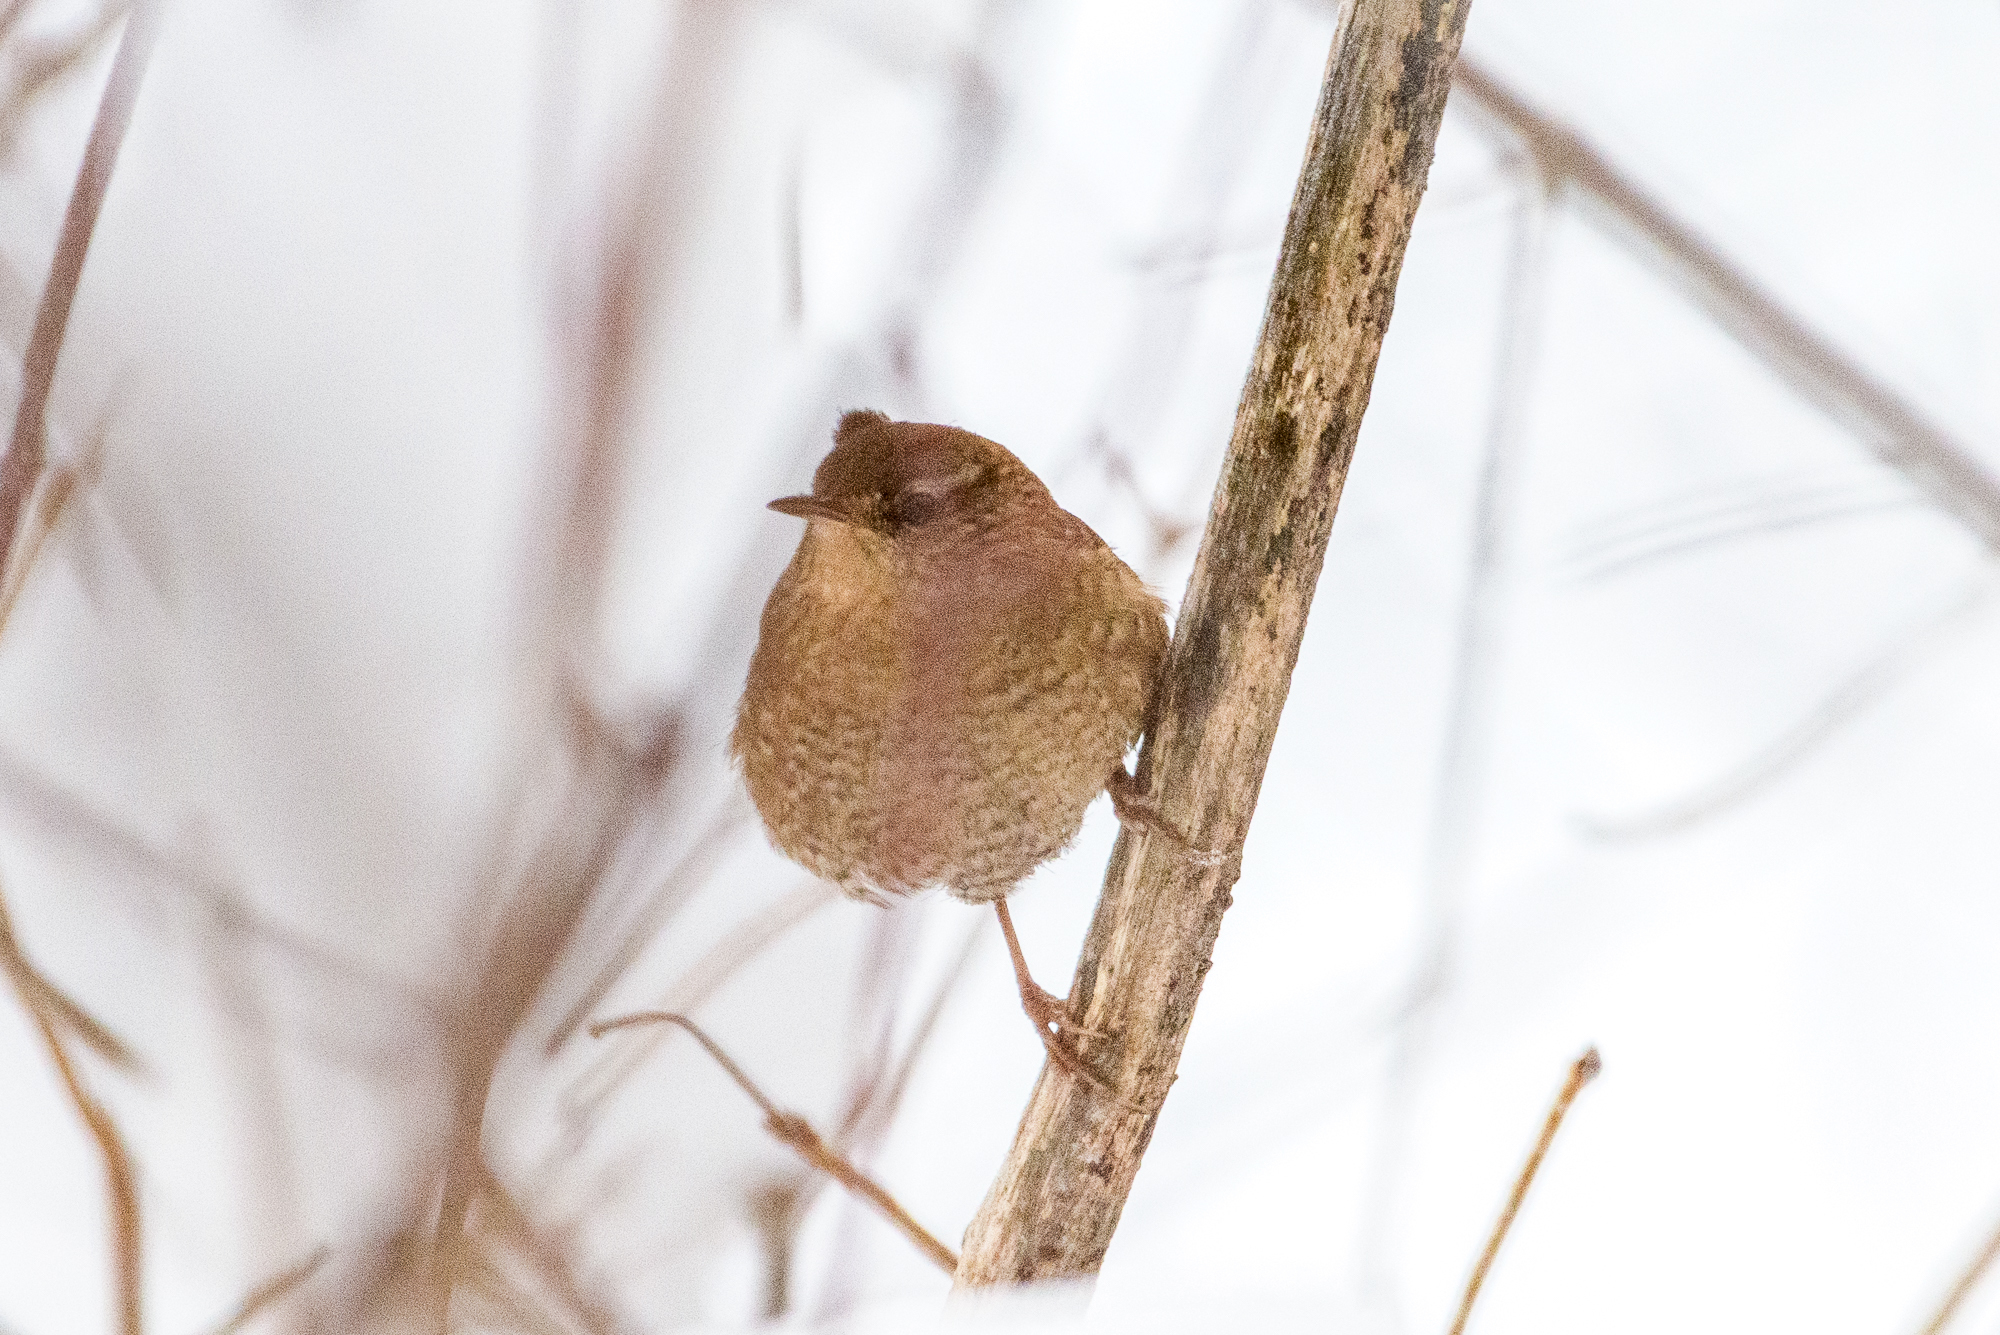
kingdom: Animalia
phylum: Chordata
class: Aves
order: Passeriformes
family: Troglodytidae
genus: Troglodytes
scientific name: Troglodytes hiemalis
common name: Winter wren
